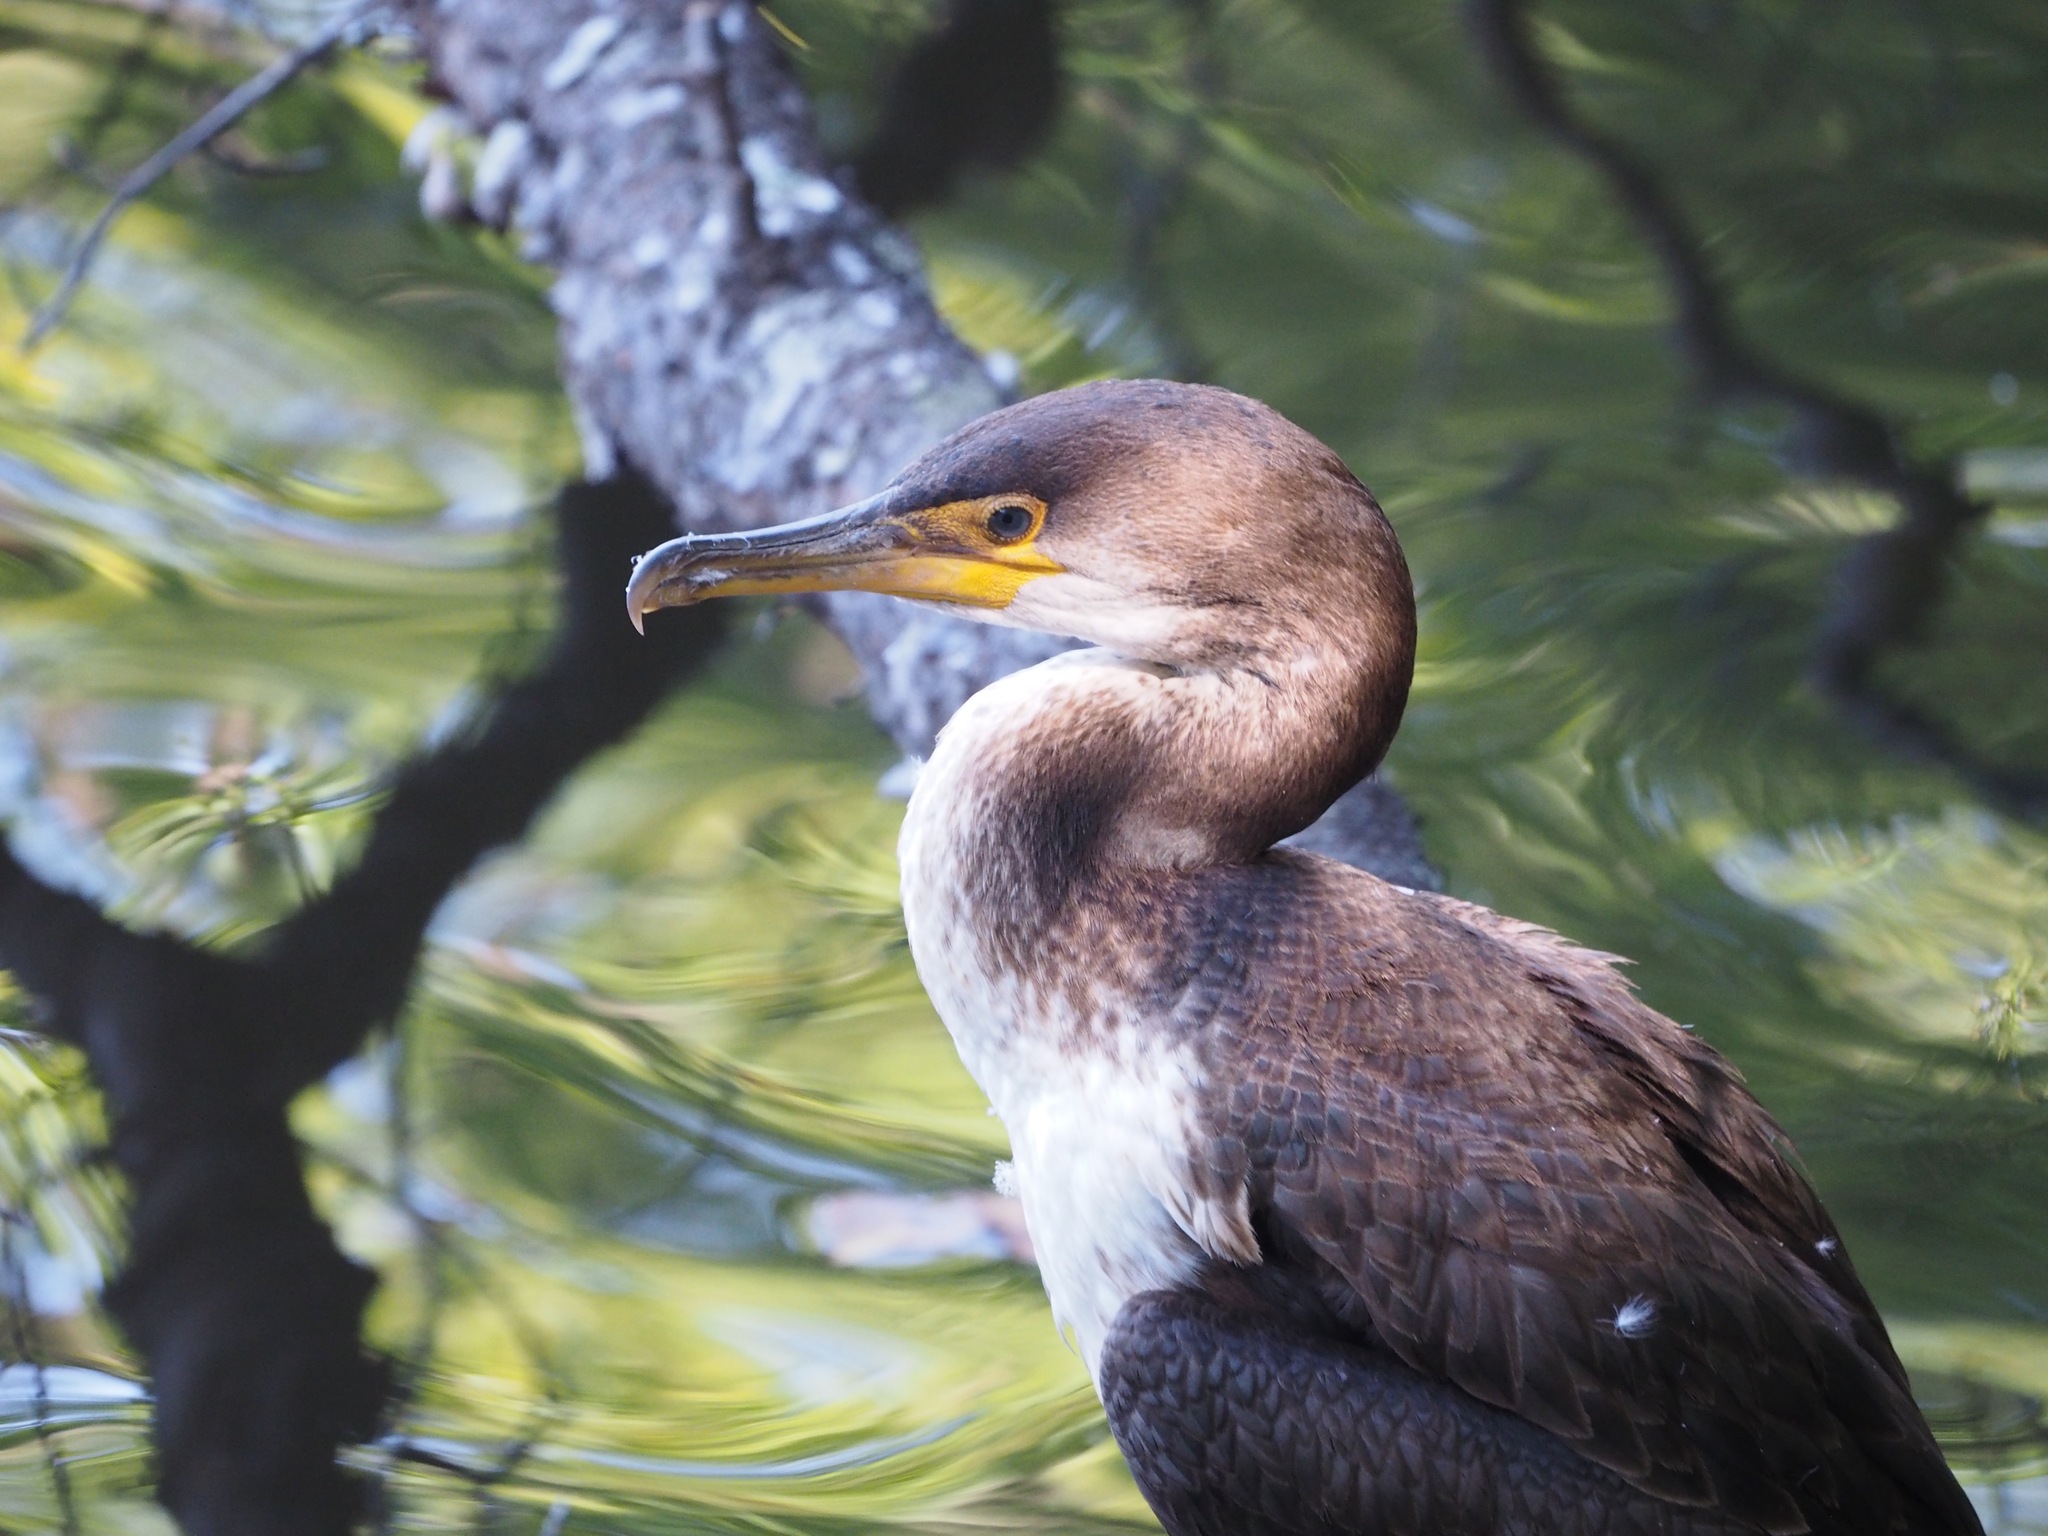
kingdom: Animalia
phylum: Chordata
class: Aves
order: Suliformes
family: Phalacrocoracidae
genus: Phalacrocorax
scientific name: Phalacrocorax capillatus
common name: Japanese cormorant
